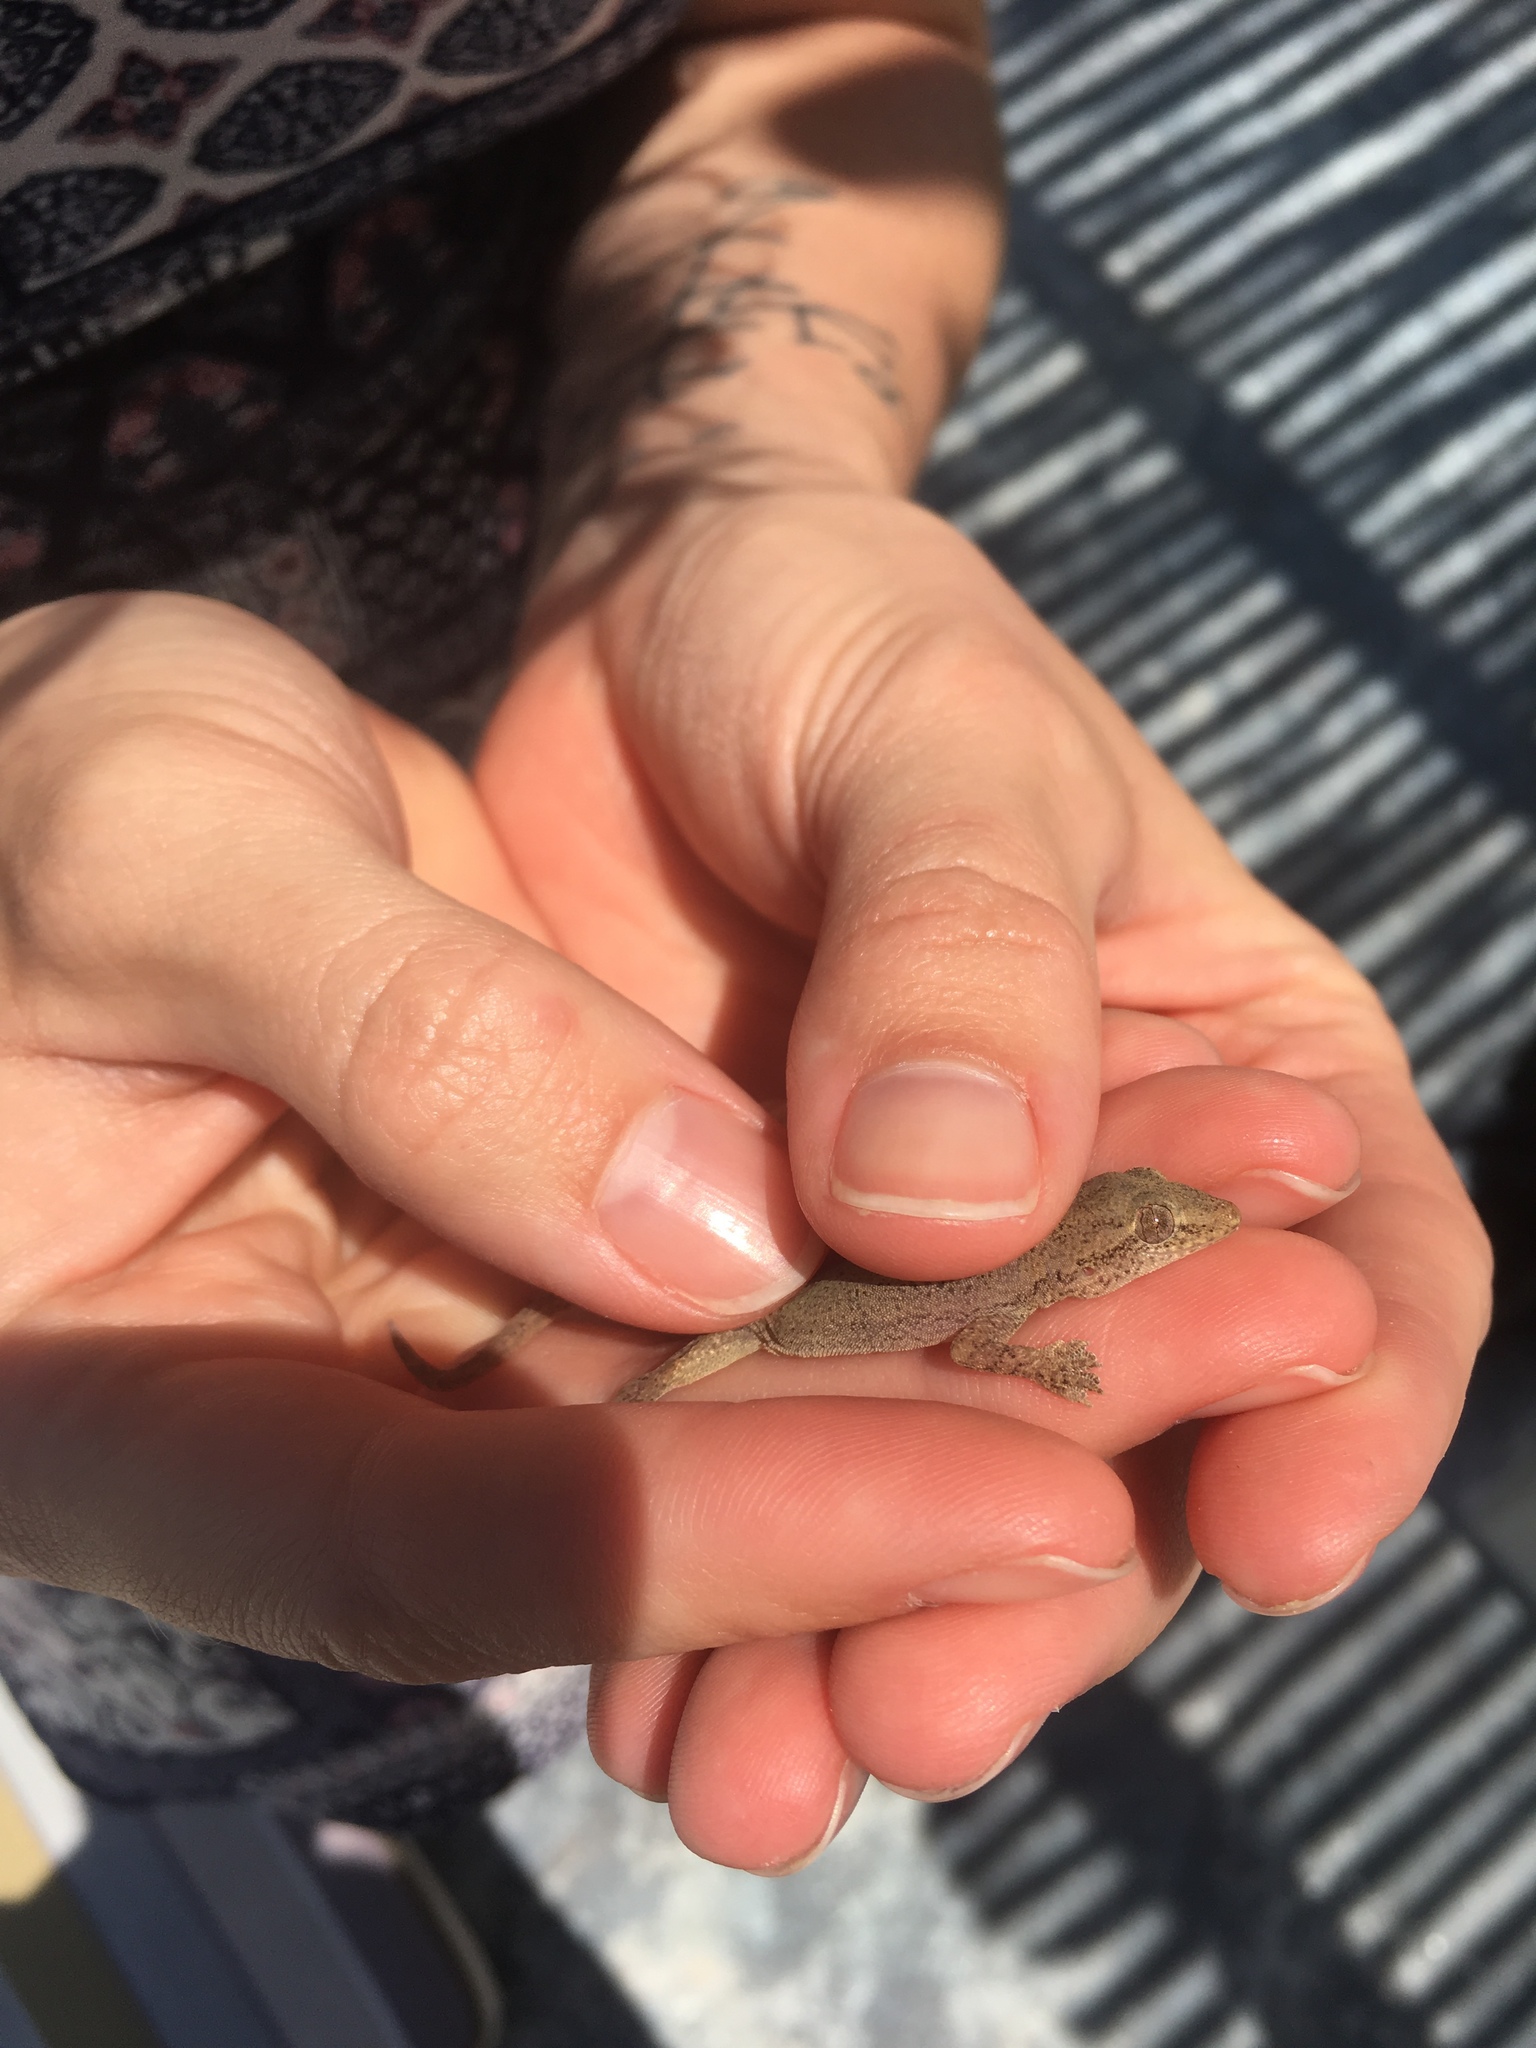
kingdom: Animalia
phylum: Chordata
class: Squamata
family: Gekkonidae
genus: Hemidactylus
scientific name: Hemidactylus frenatus
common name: Common house gecko
